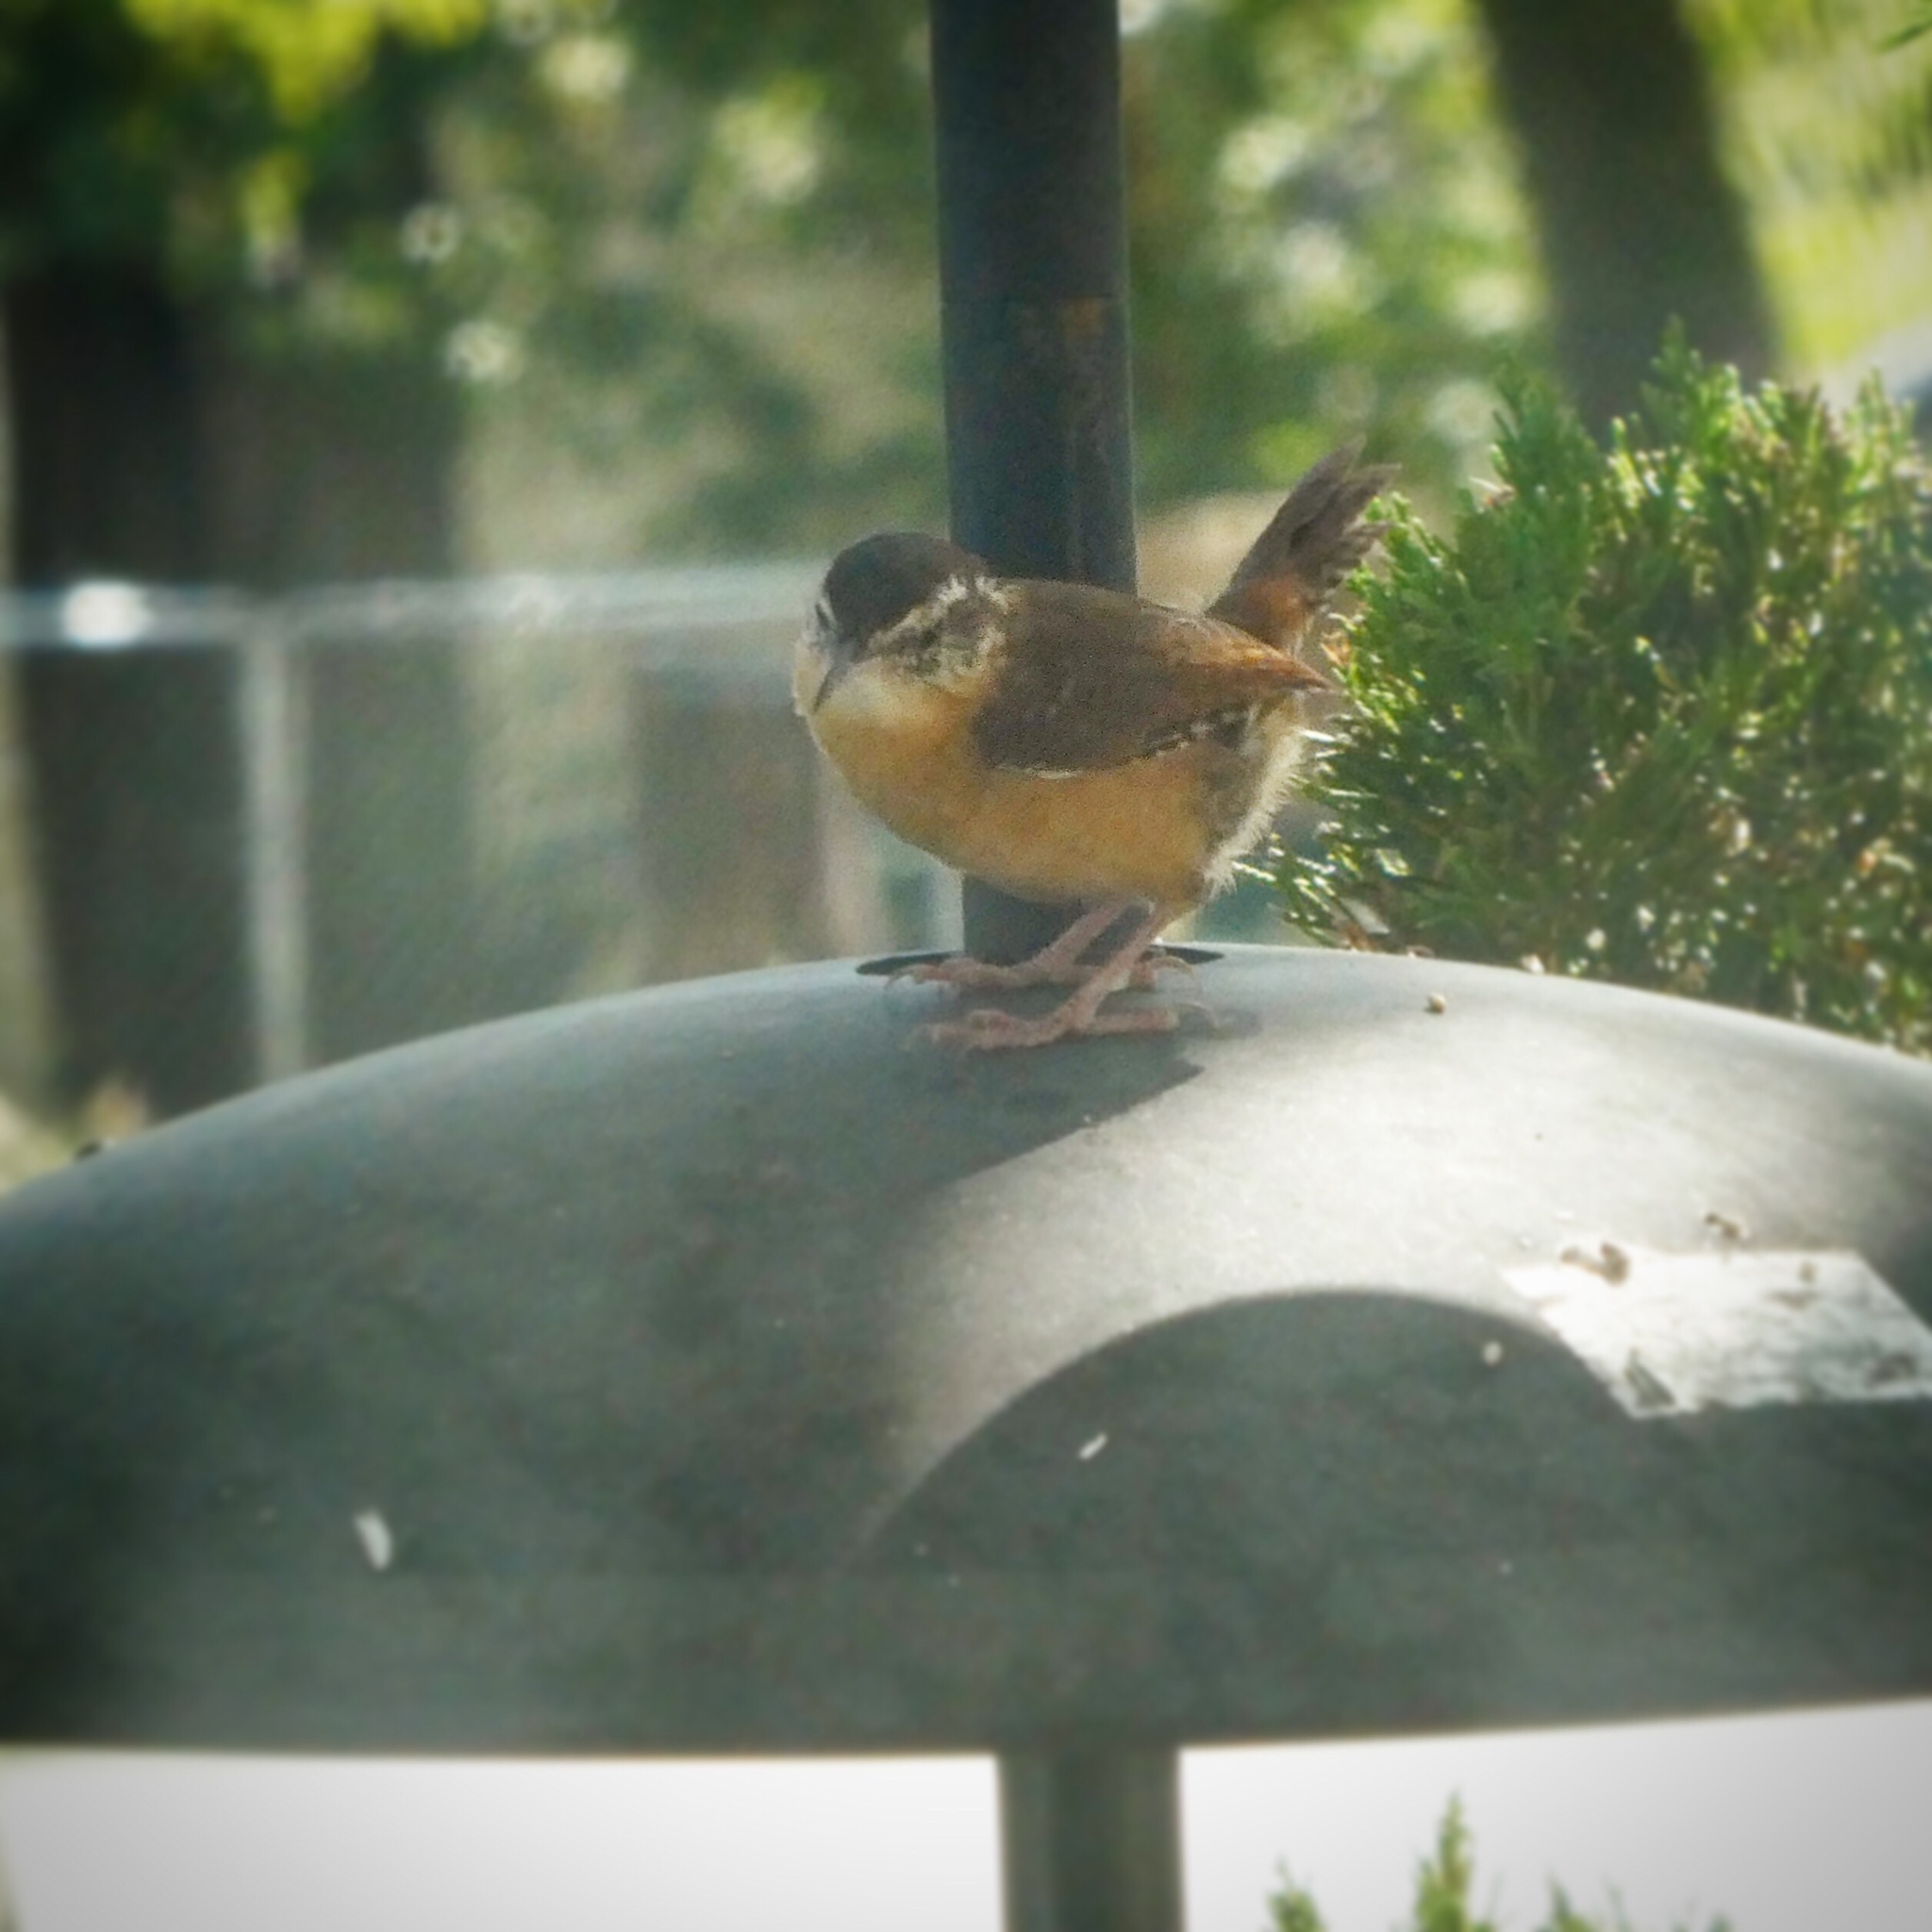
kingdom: Animalia
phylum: Chordata
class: Aves
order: Passeriformes
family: Troglodytidae
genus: Thryothorus
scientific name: Thryothorus ludovicianus
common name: Carolina wren
